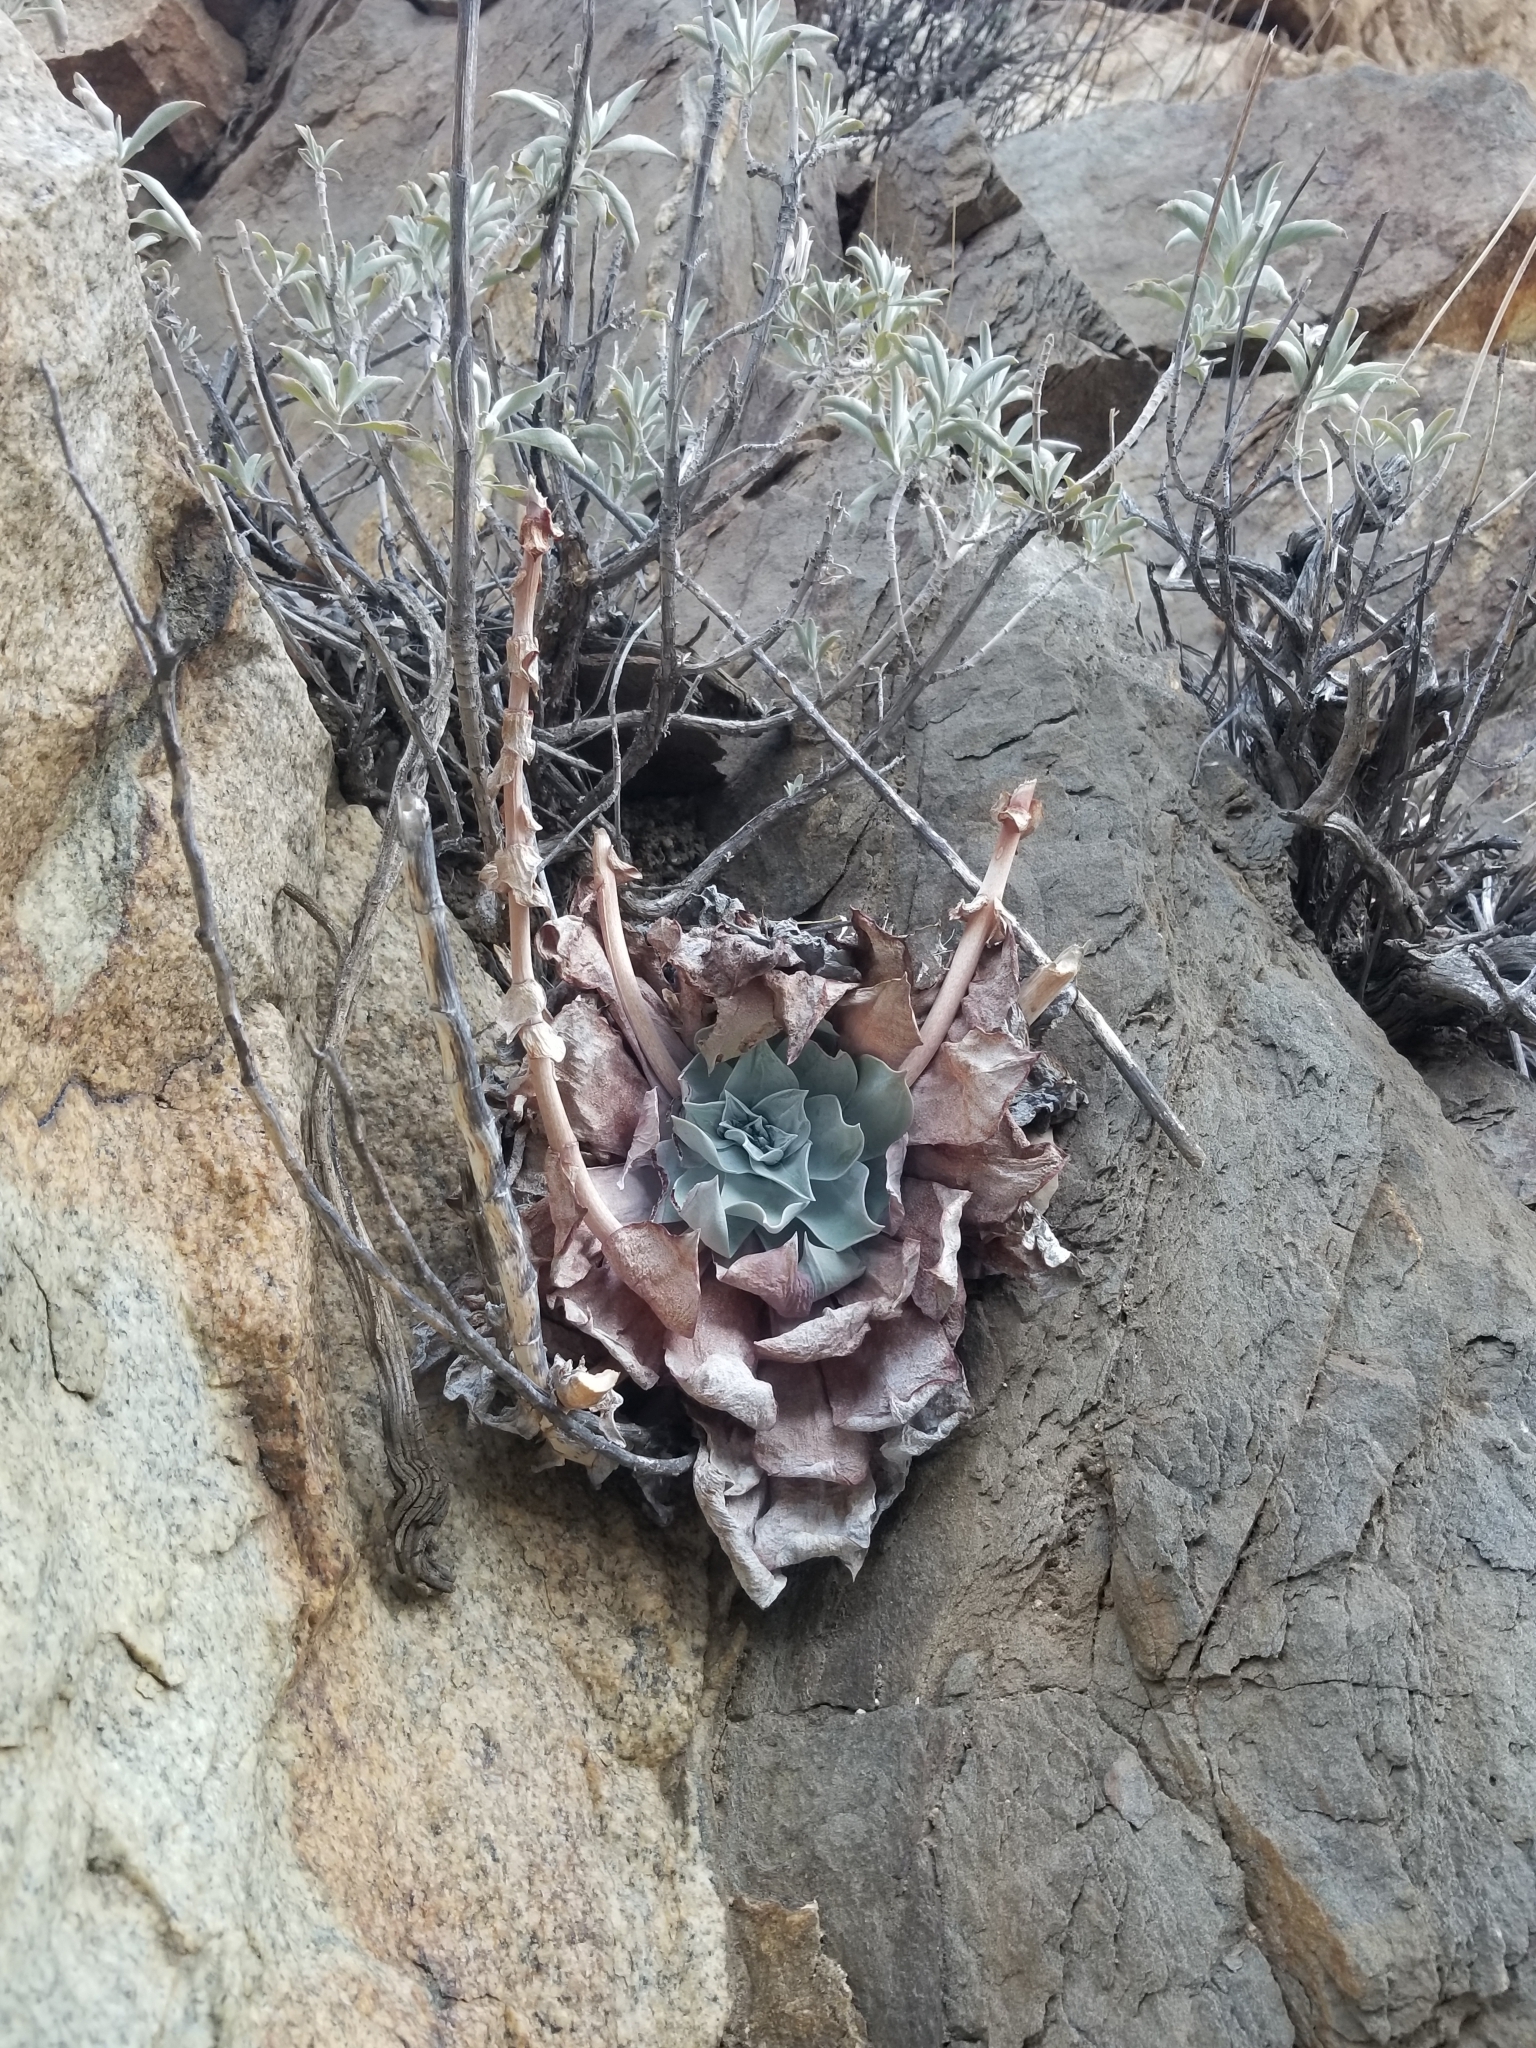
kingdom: Plantae
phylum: Tracheophyta
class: Magnoliopsida
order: Saxifragales
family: Crassulaceae
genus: Dudleya
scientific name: Dudleya pulverulenta
